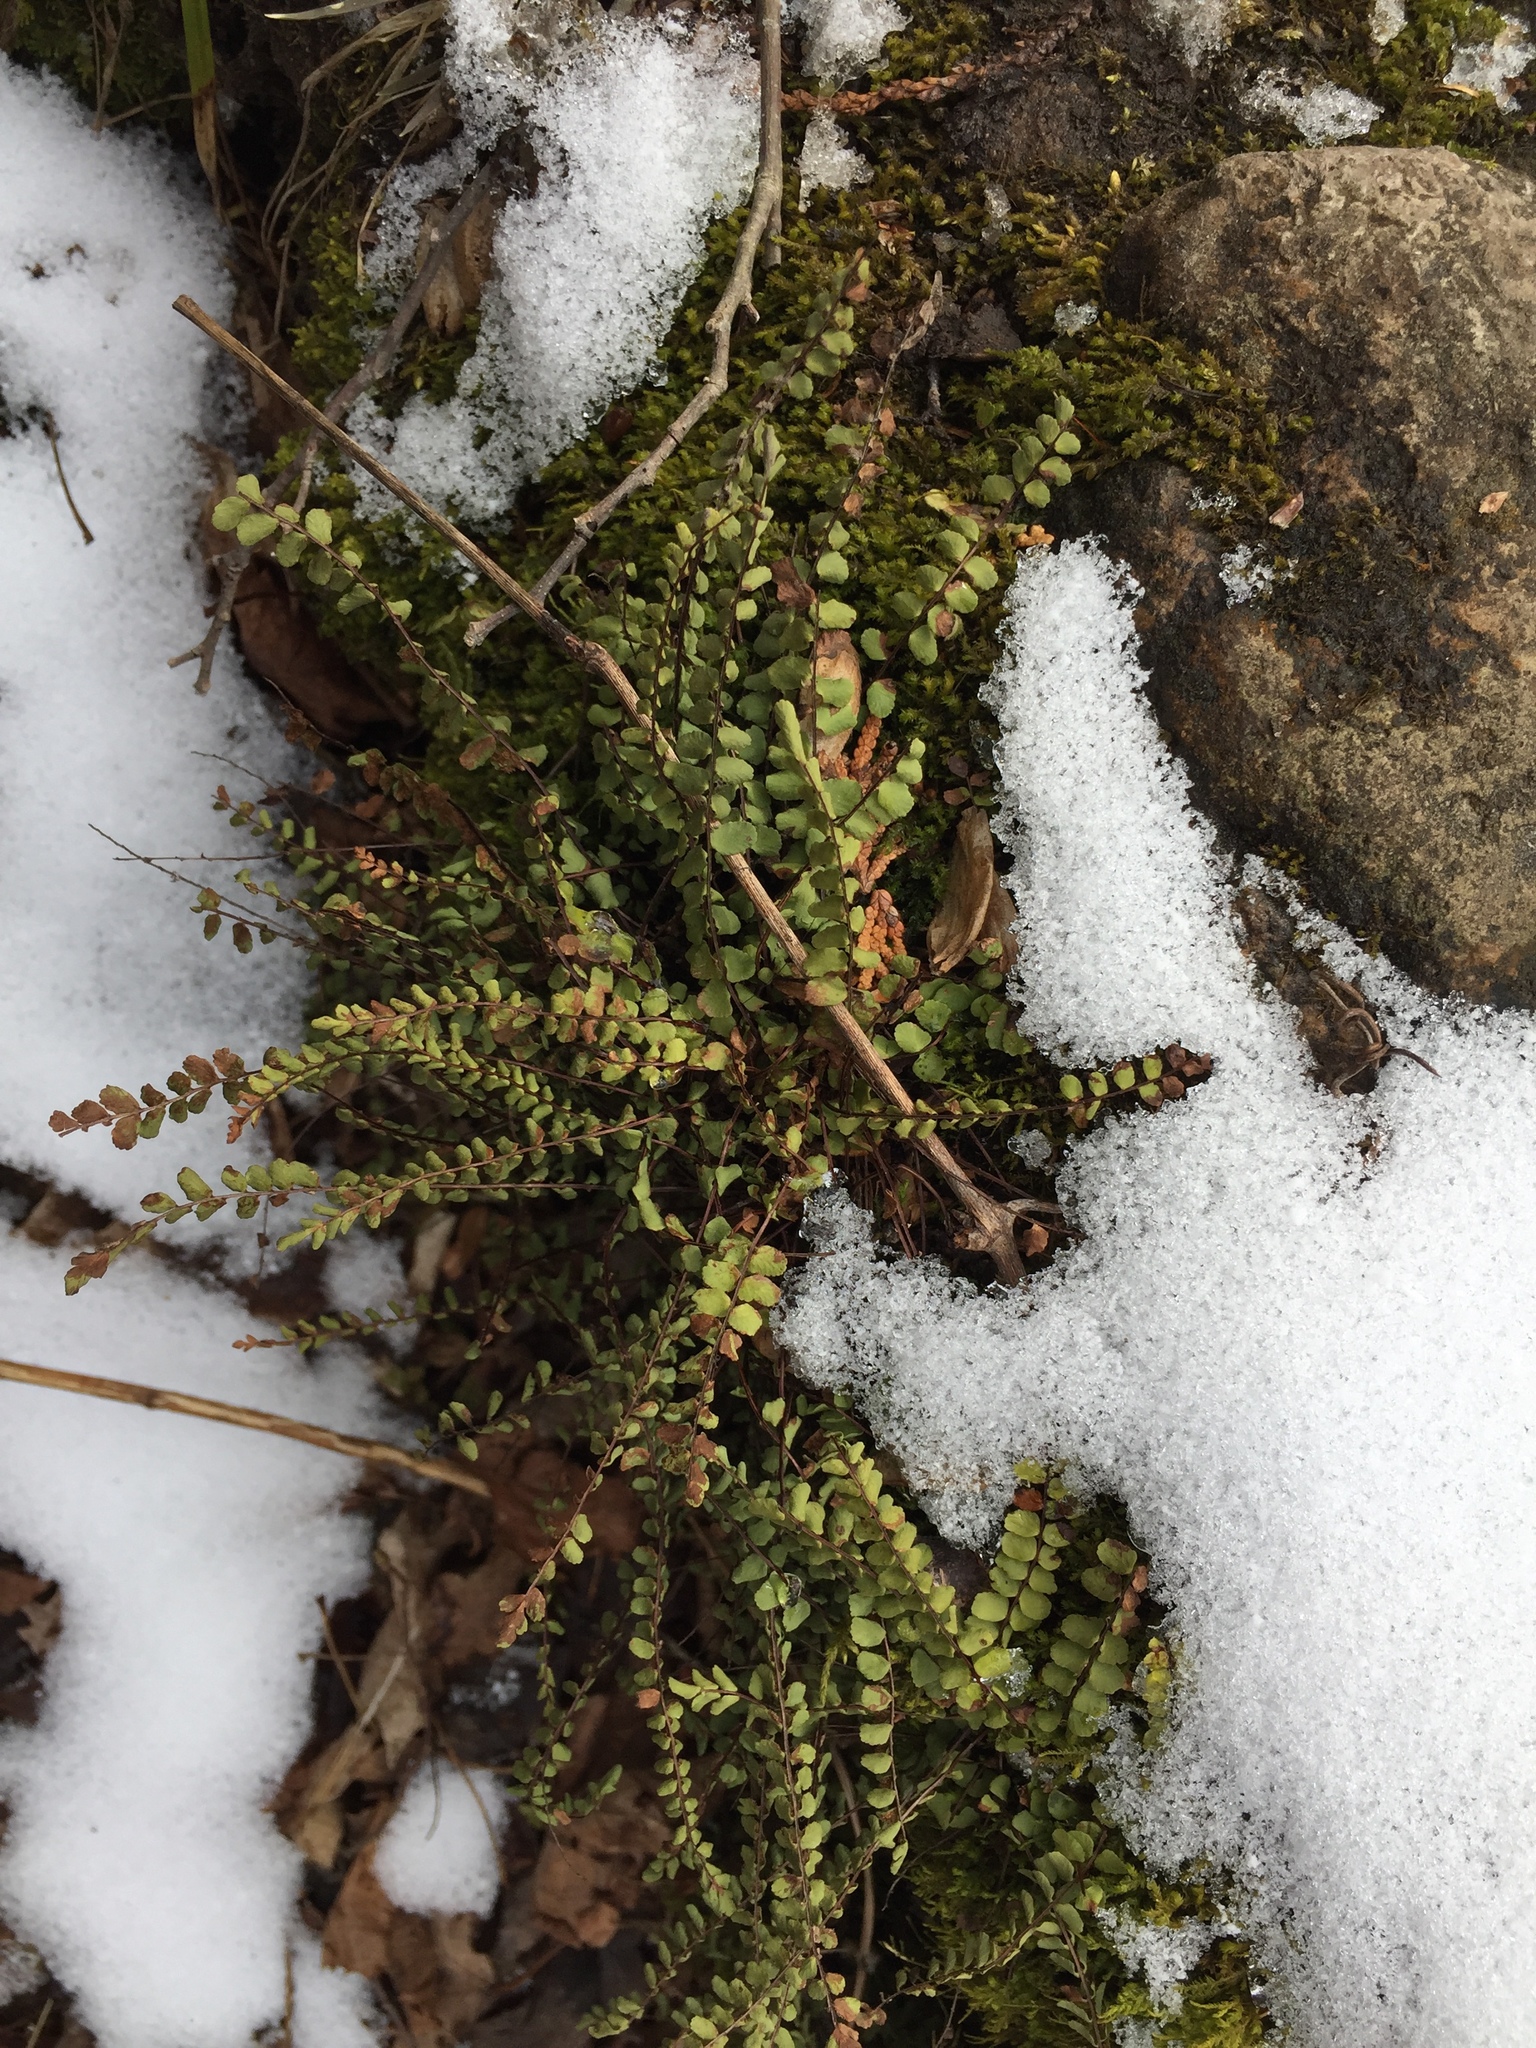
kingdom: Plantae
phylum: Tracheophyta
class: Polypodiopsida
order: Polypodiales
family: Aspleniaceae
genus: Asplenium
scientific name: Asplenium trichomanes
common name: Maidenhair spleenwort
